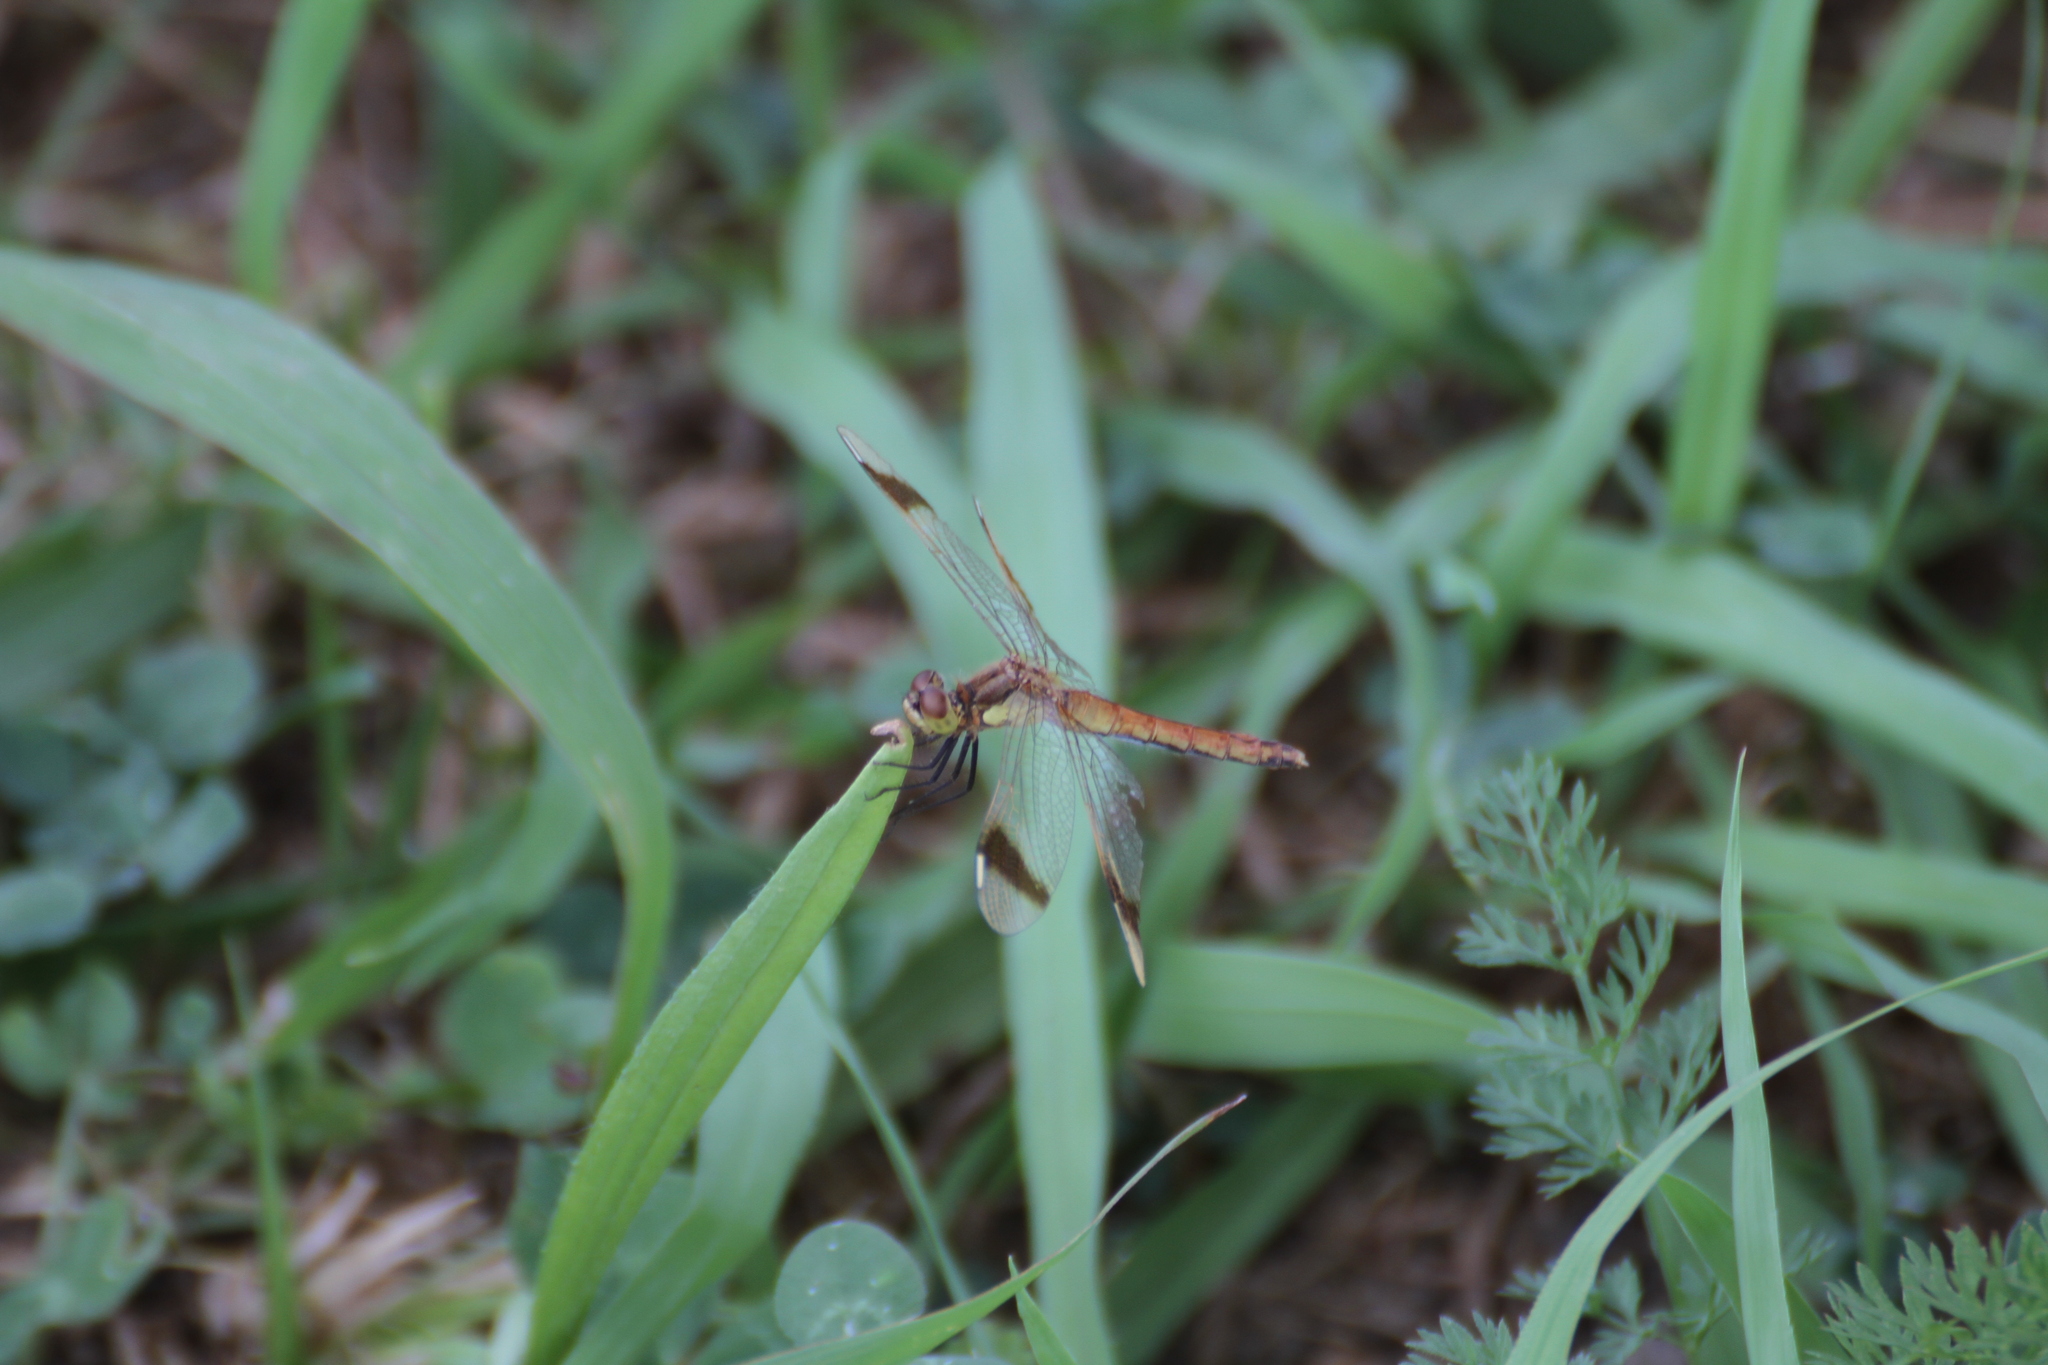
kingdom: Animalia
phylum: Arthropoda
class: Insecta
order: Odonata
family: Libellulidae
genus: Sympetrum
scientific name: Sympetrum pedemontanum
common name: Banded darter
